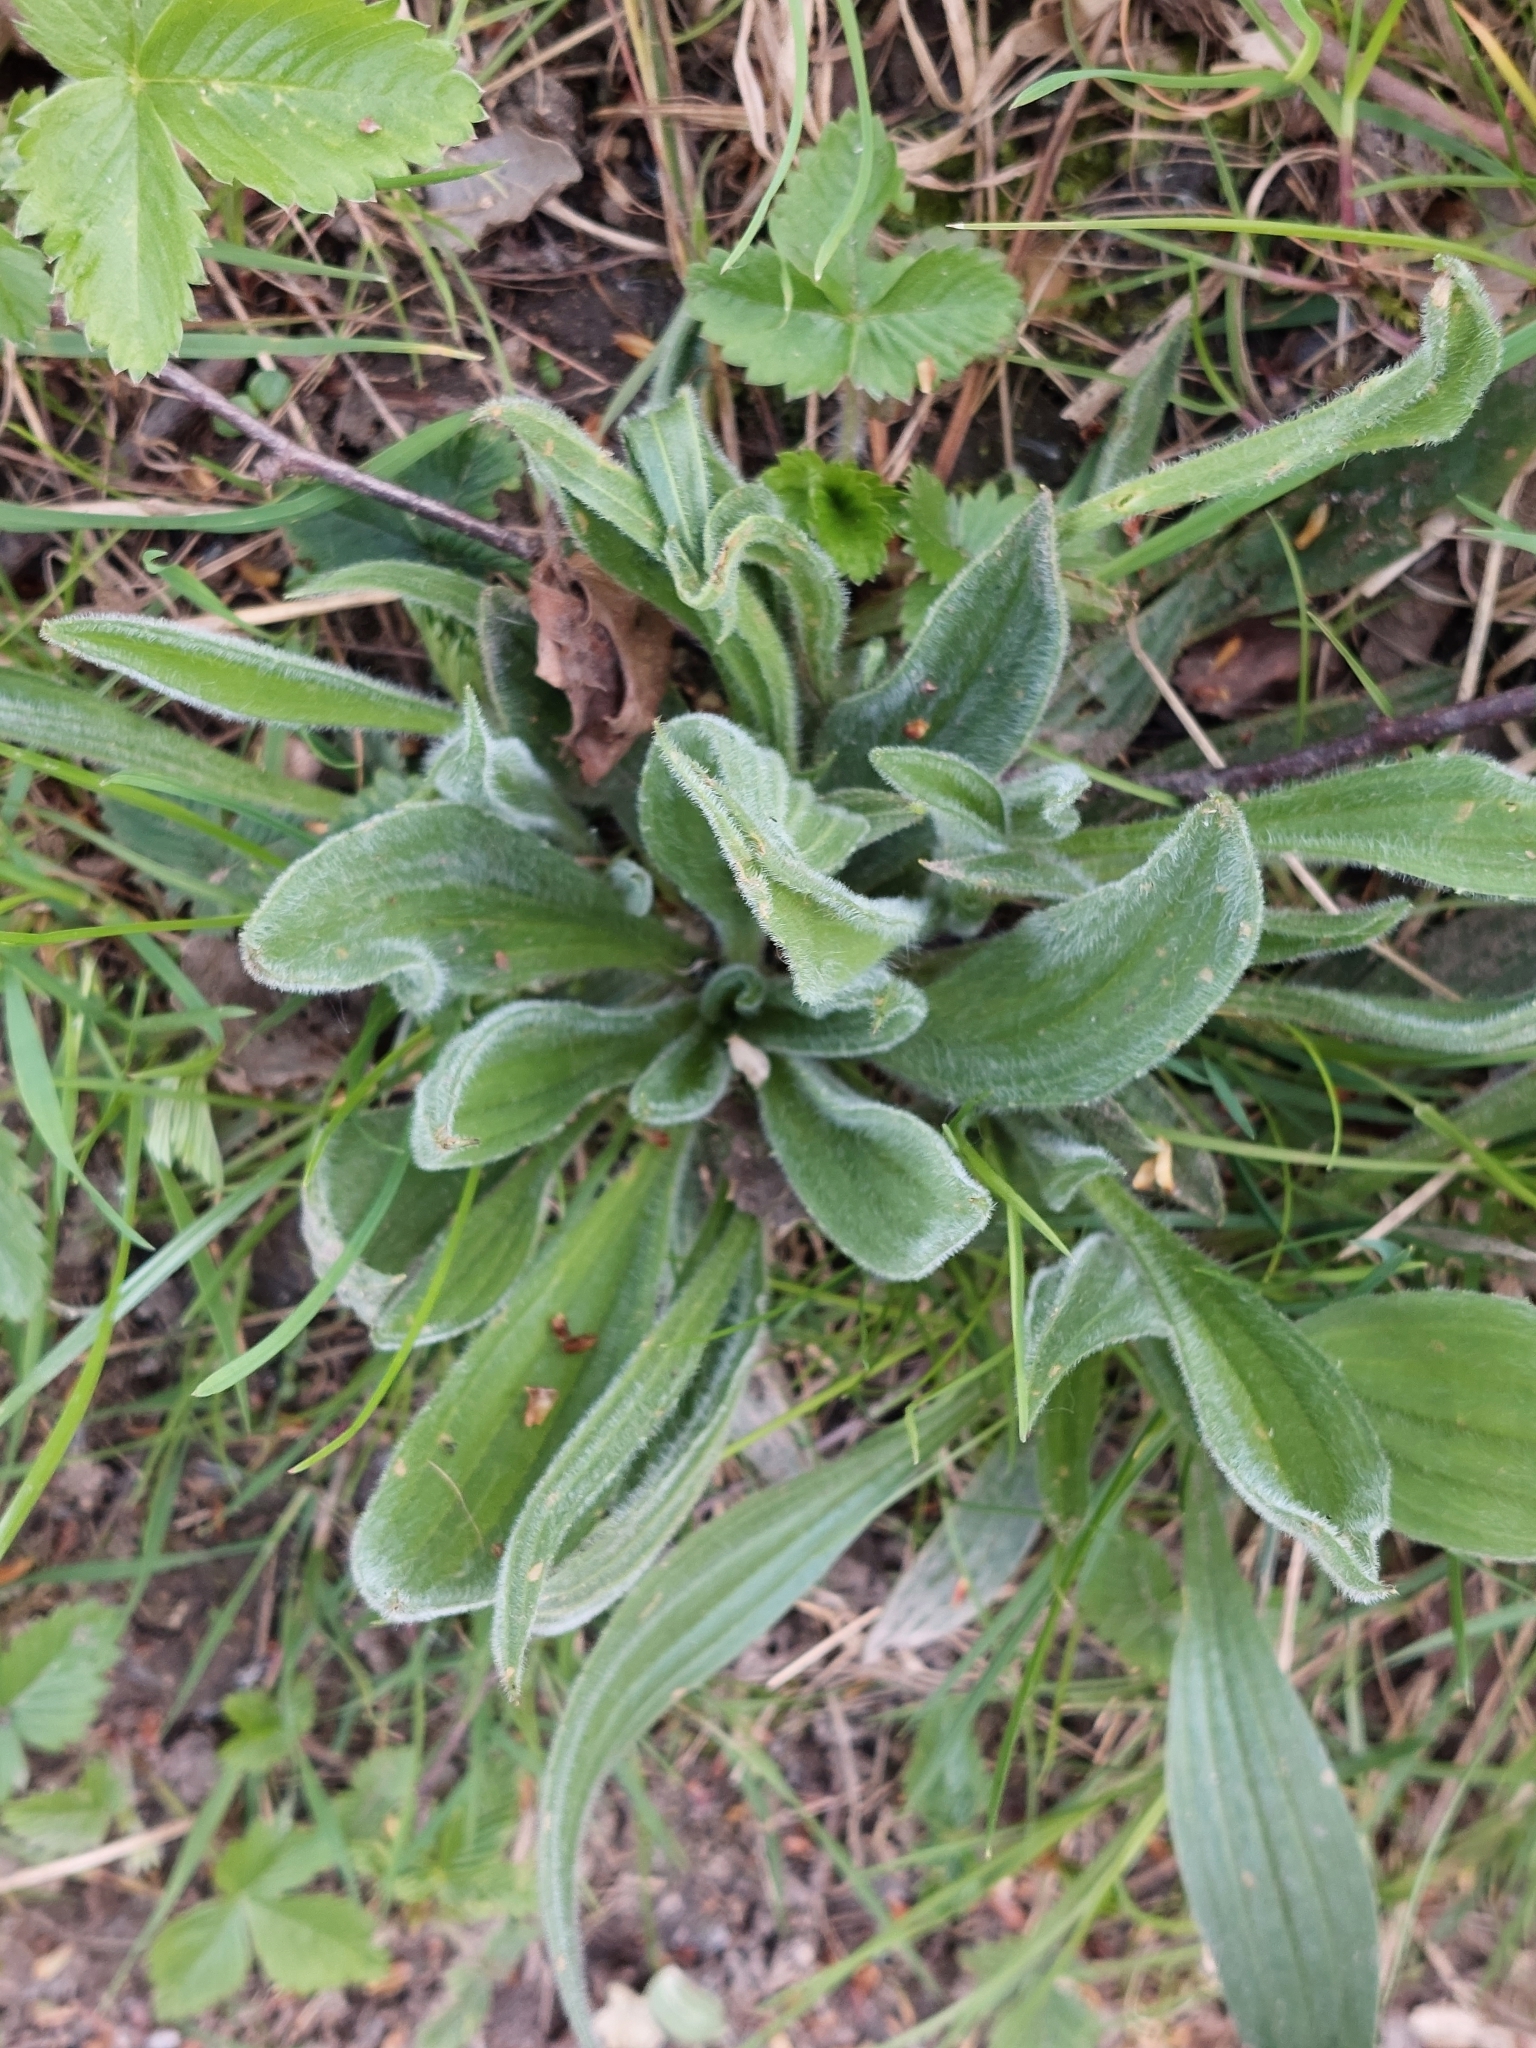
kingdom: Plantae
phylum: Tracheophyta
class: Magnoliopsida
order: Lamiales
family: Plantaginaceae
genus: Plantago
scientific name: Plantago lanceolata
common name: Ribwort plantain
